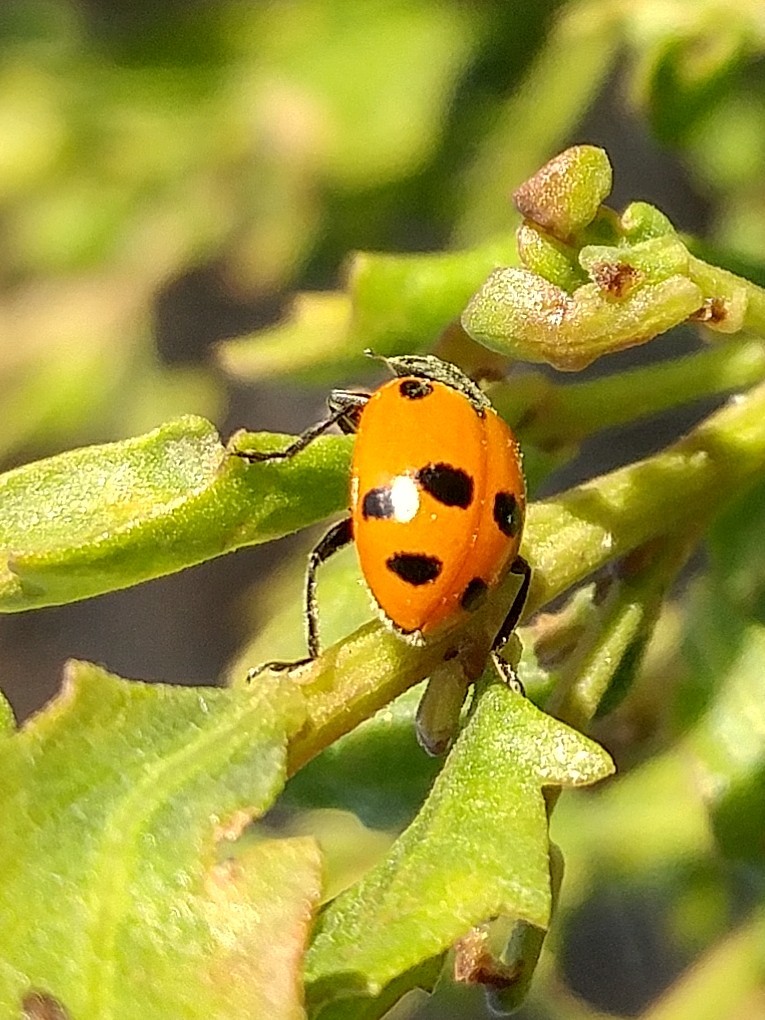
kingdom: Animalia
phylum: Arthropoda
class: Insecta
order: Coleoptera
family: Coccinellidae
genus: Hippodamia
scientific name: Hippodamia convergens
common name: Convergent lady beetle
